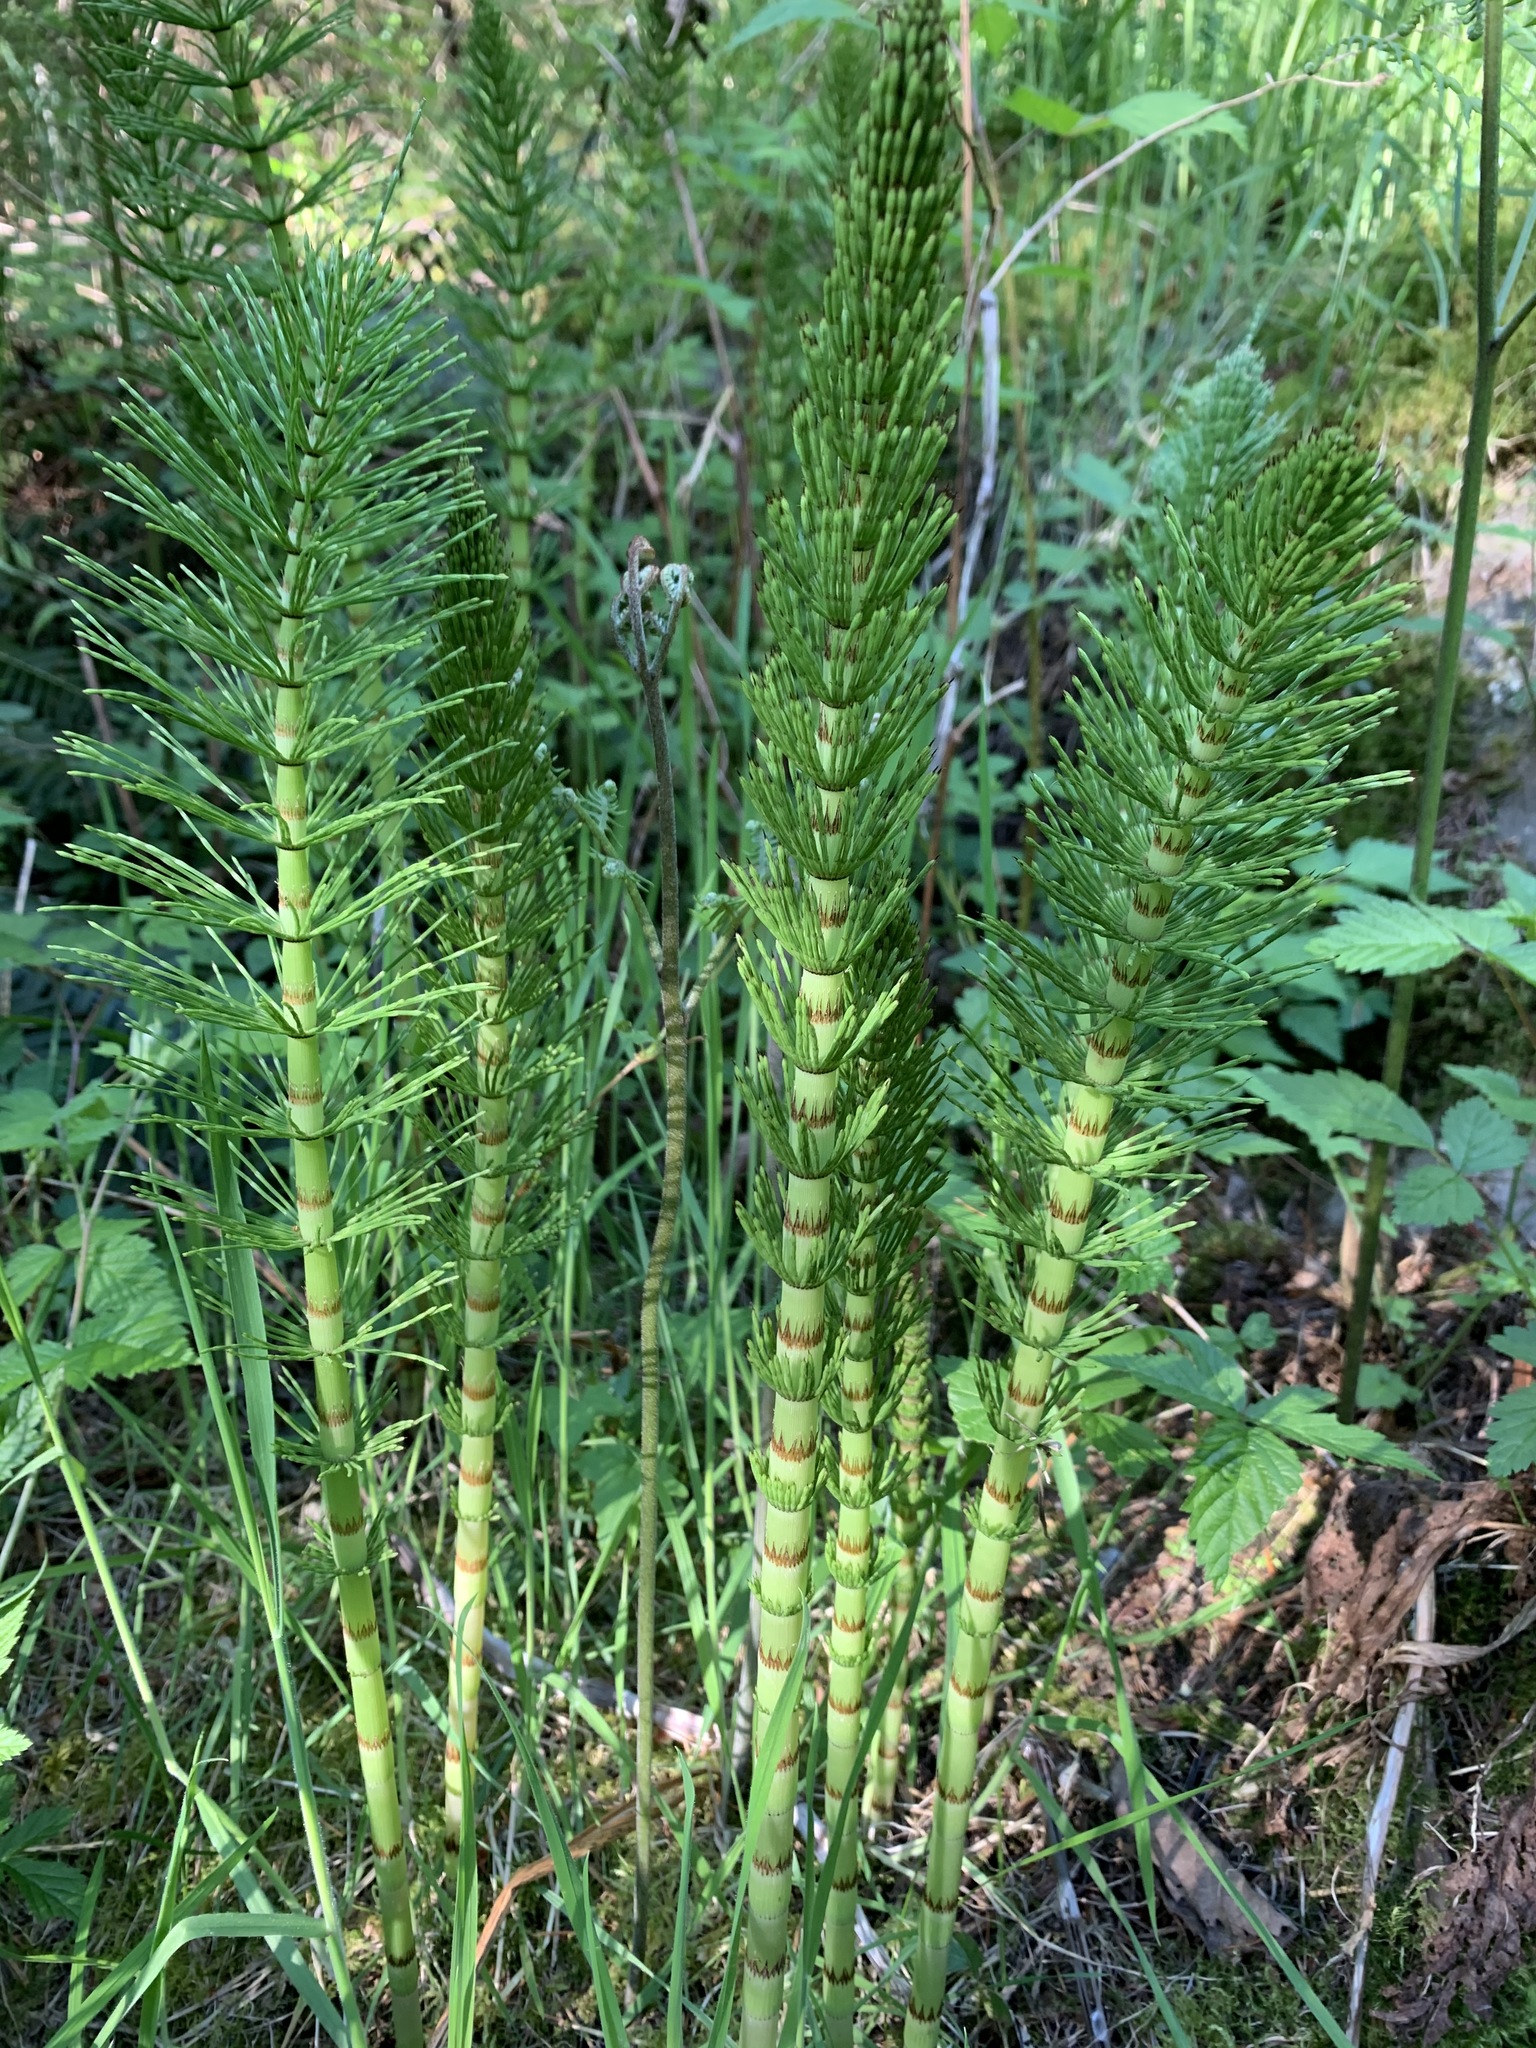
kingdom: Plantae
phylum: Tracheophyta
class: Polypodiopsida
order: Equisetales
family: Equisetaceae
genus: Equisetum
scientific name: Equisetum telmateia
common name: Great horsetail
